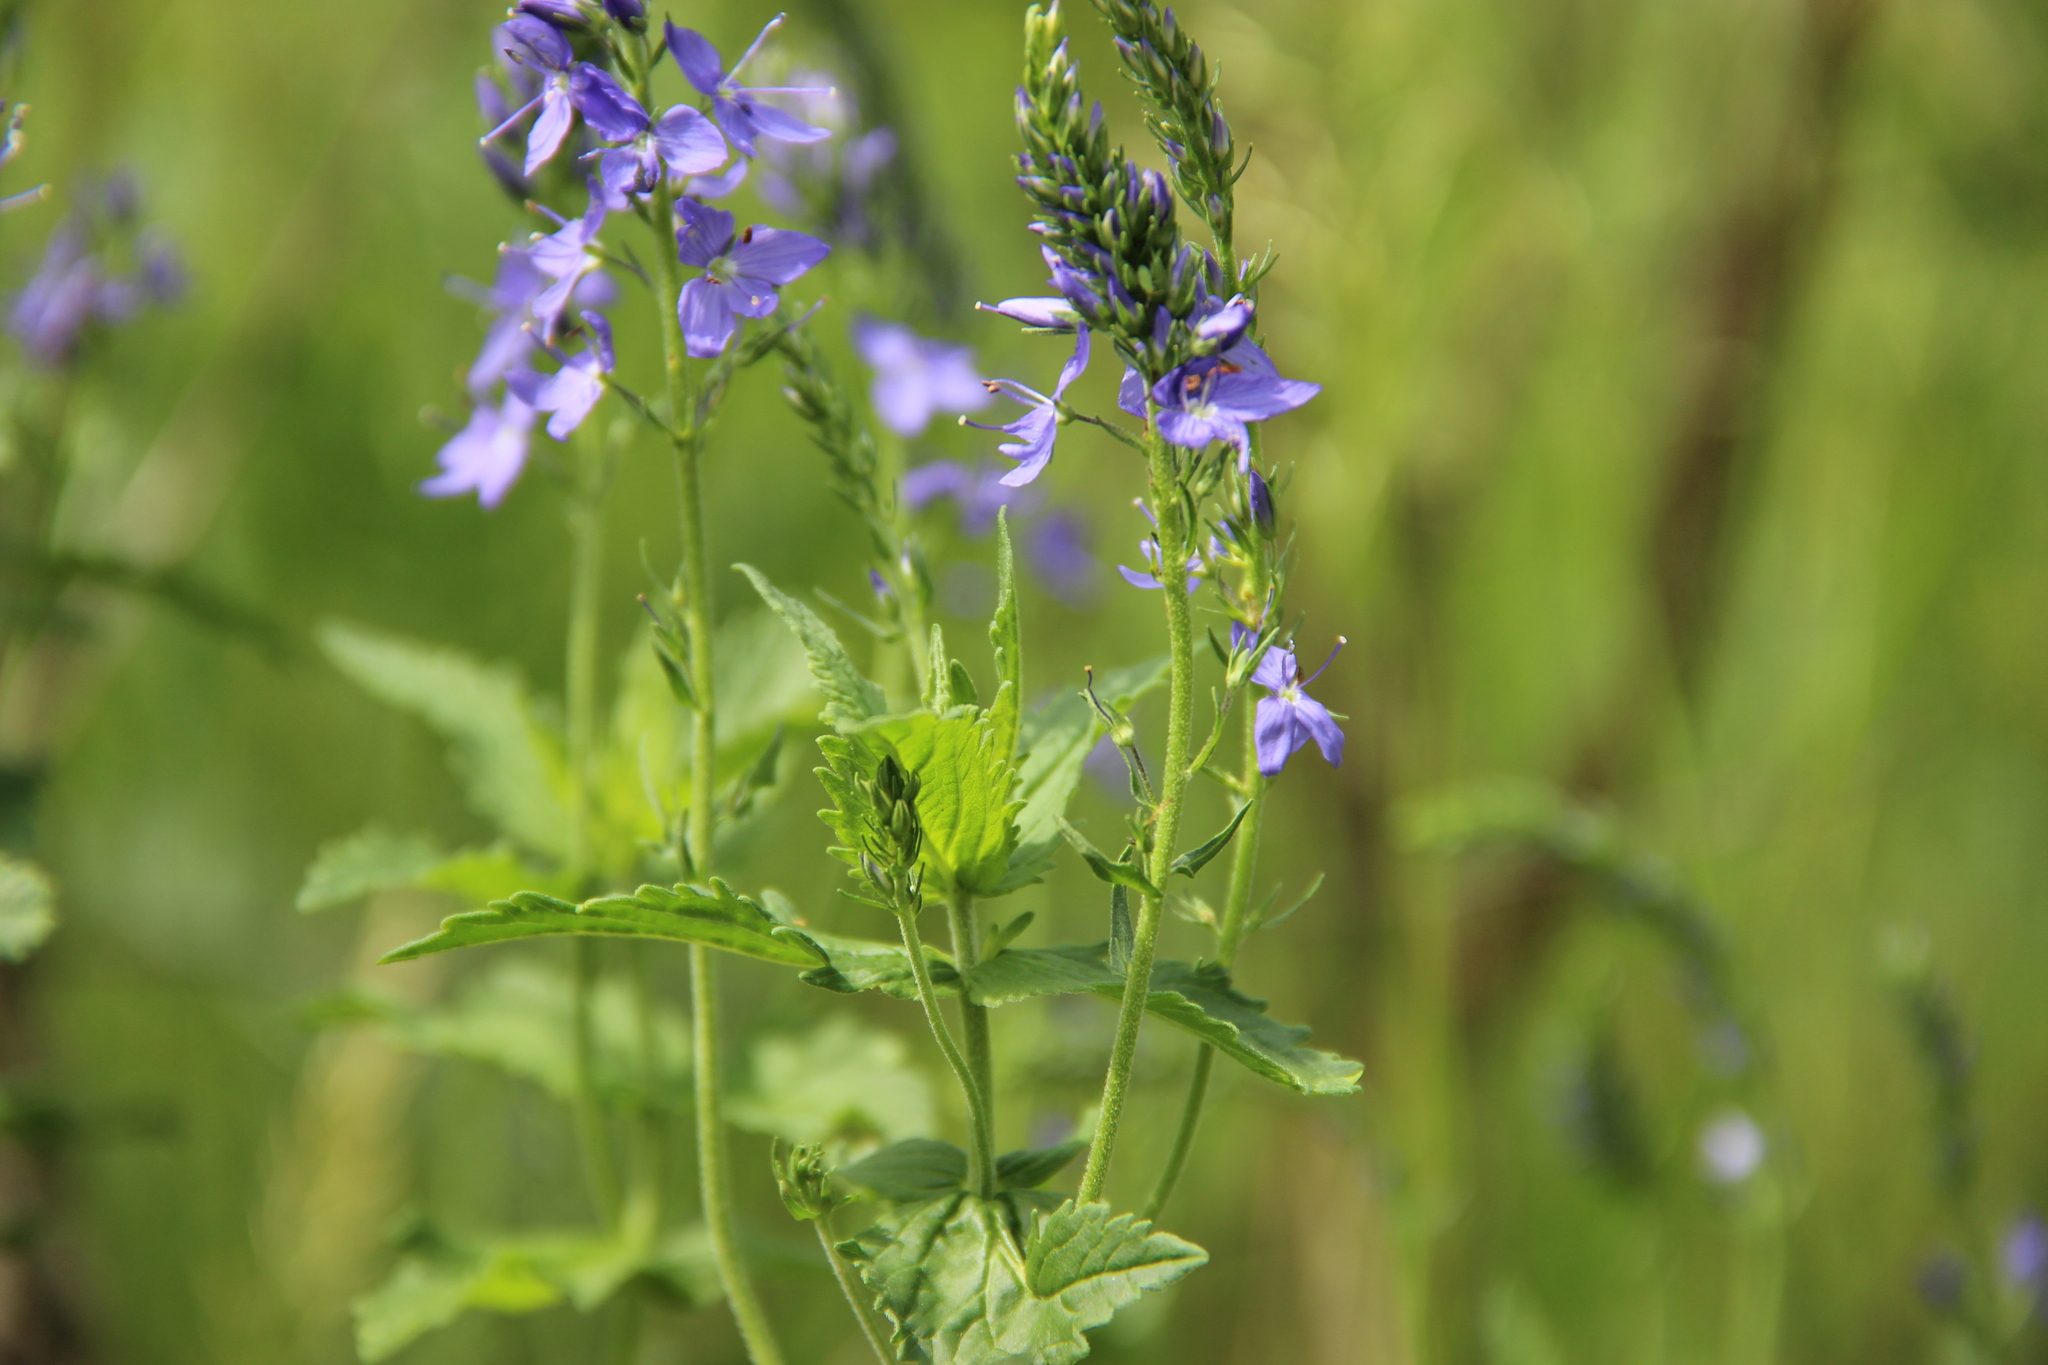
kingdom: Plantae
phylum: Tracheophyta
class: Magnoliopsida
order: Lamiales
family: Plantaginaceae
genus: Veronica
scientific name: Veronica teucrium
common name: Large speedwell
